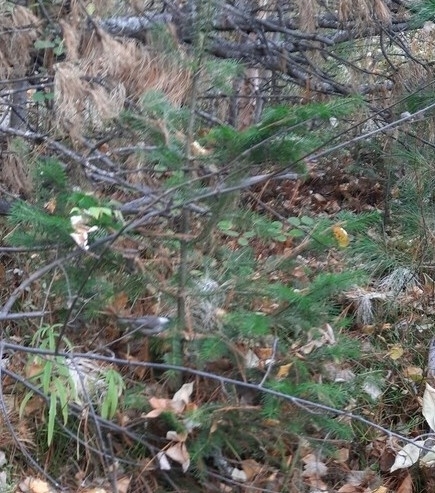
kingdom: Animalia
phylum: Chordata
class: Aves
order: Passeriformes
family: Paridae
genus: Poecile
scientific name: Poecile montanus
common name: Willow tit
